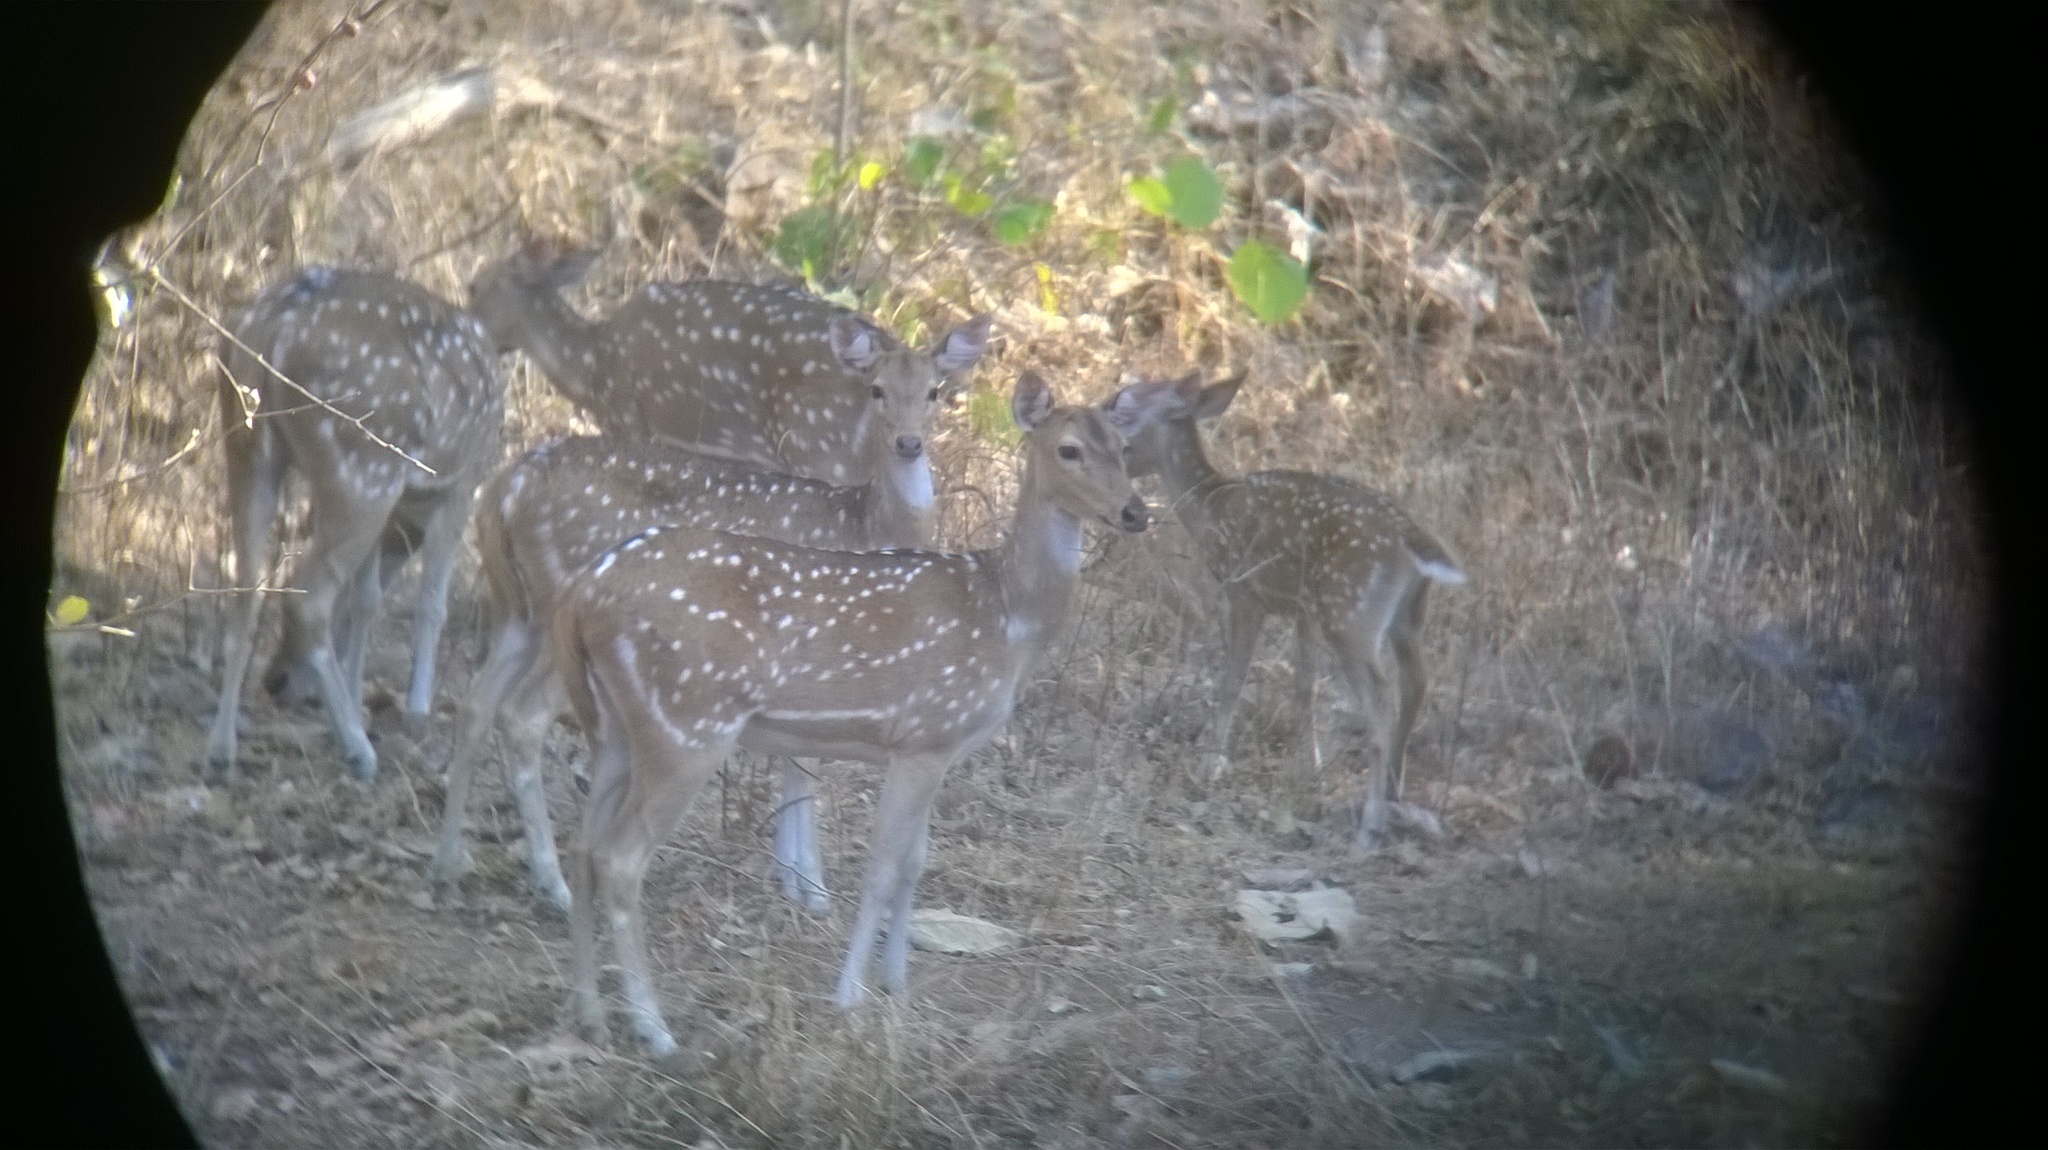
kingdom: Animalia
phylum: Chordata
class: Mammalia
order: Artiodactyla
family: Cervidae
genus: Axis
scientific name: Axis axis
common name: Chital
